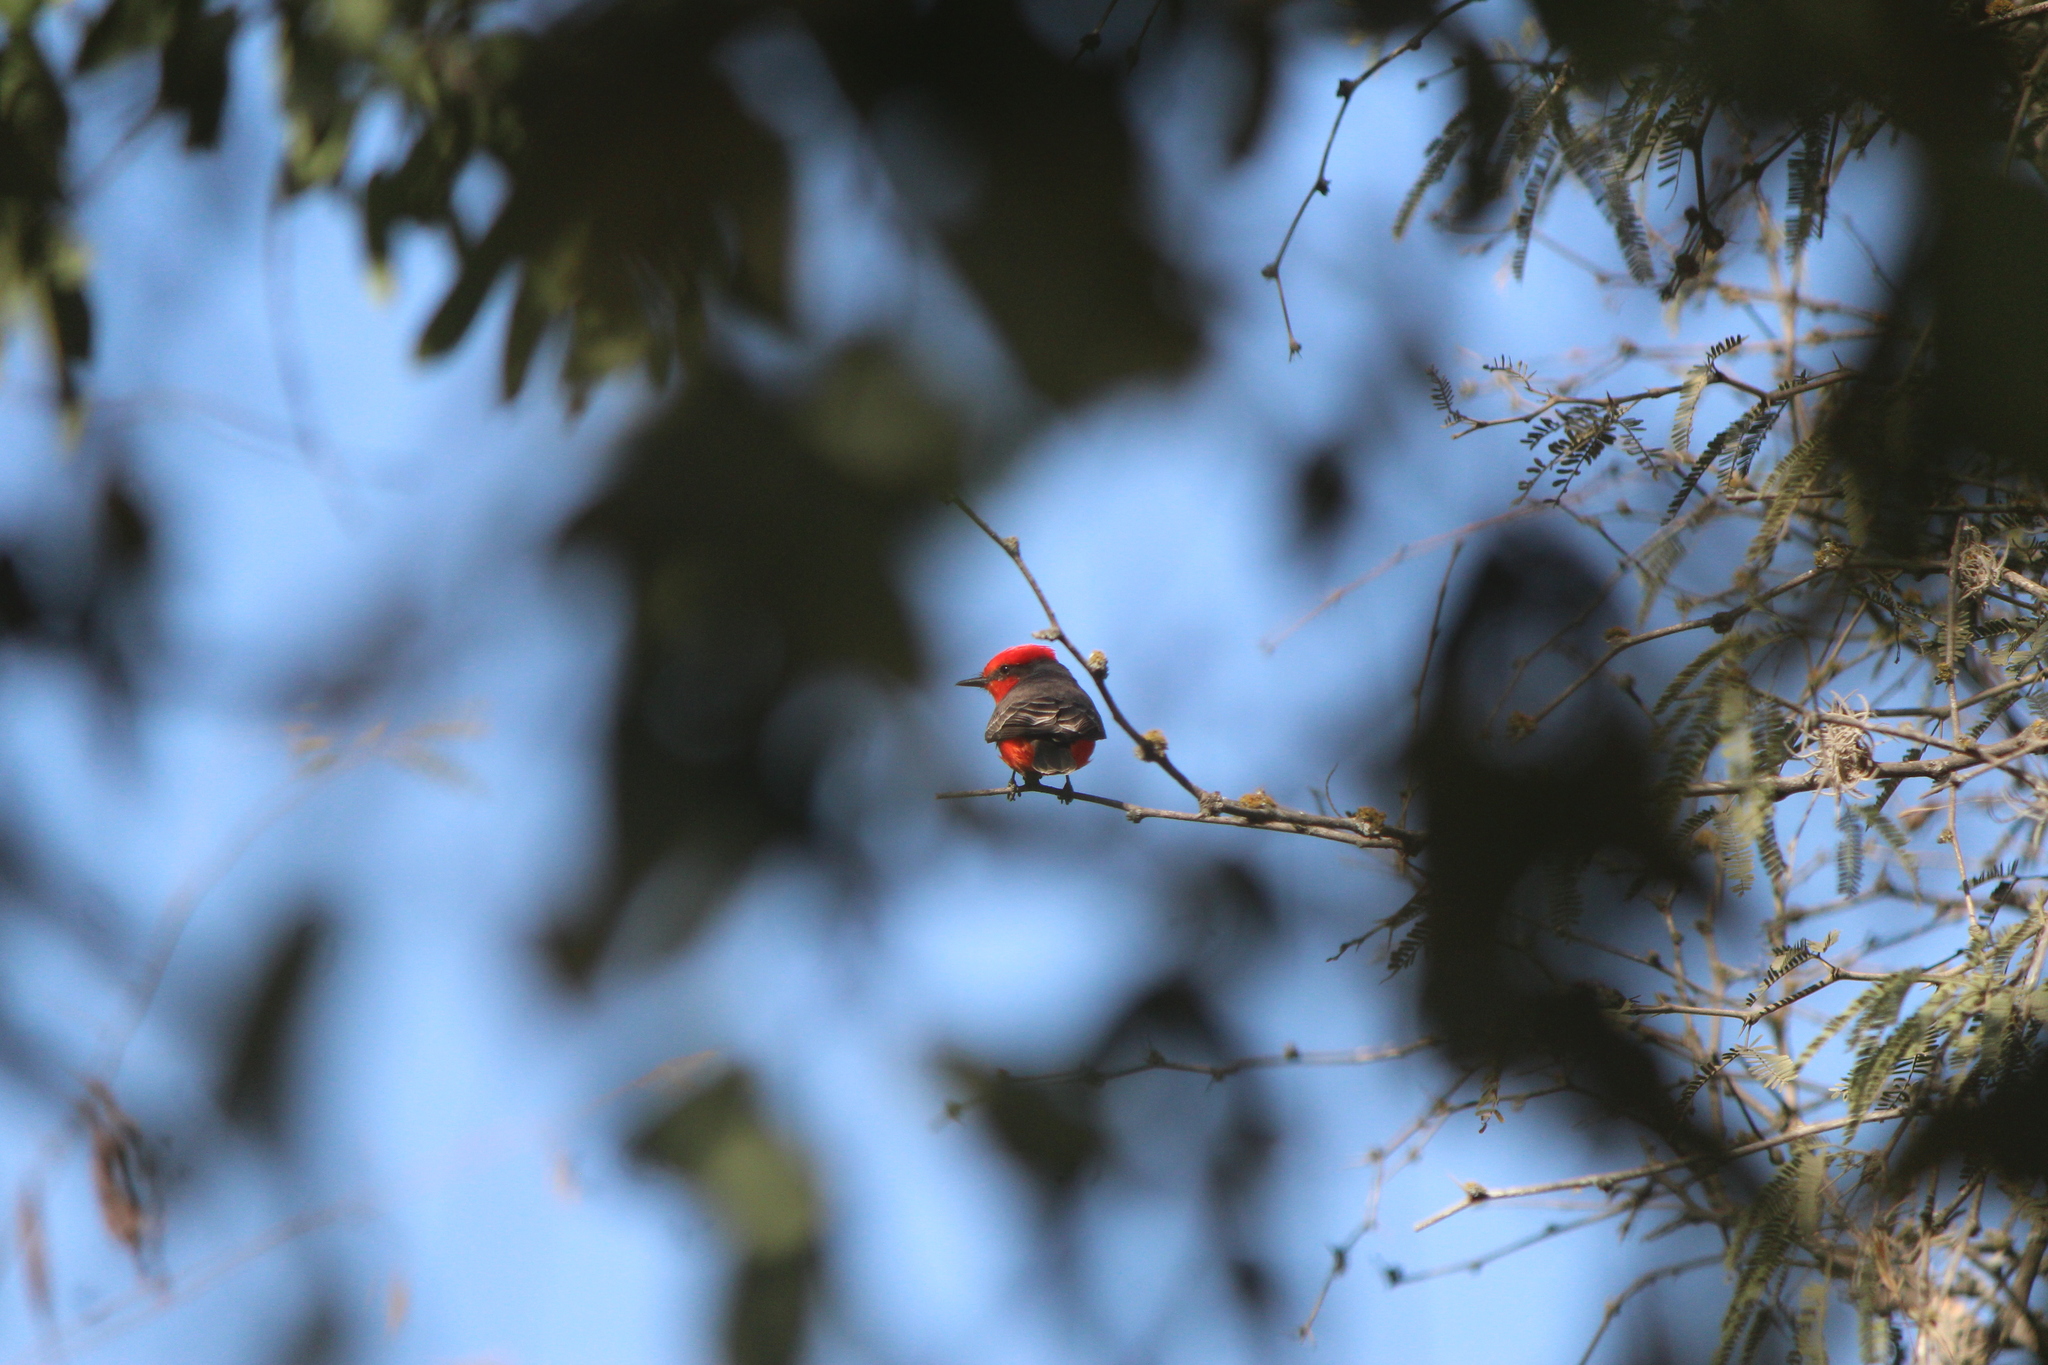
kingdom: Animalia
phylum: Chordata
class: Aves
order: Passeriformes
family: Tyrannidae
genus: Pyrocephalus
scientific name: Pyrocephalus rubinus
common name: Vermilion flycatcher
